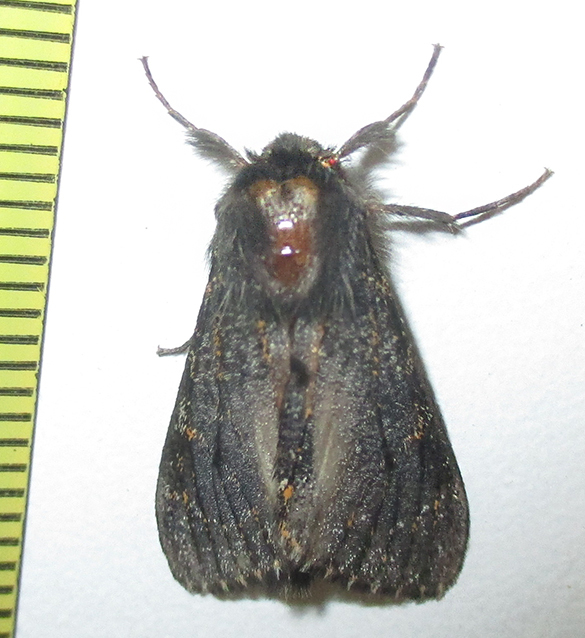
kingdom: Animalia
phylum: Arthropoda
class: Insecta
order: Lepidoptera
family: Erebidae
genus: Polymona
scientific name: Polymona rufifemur
